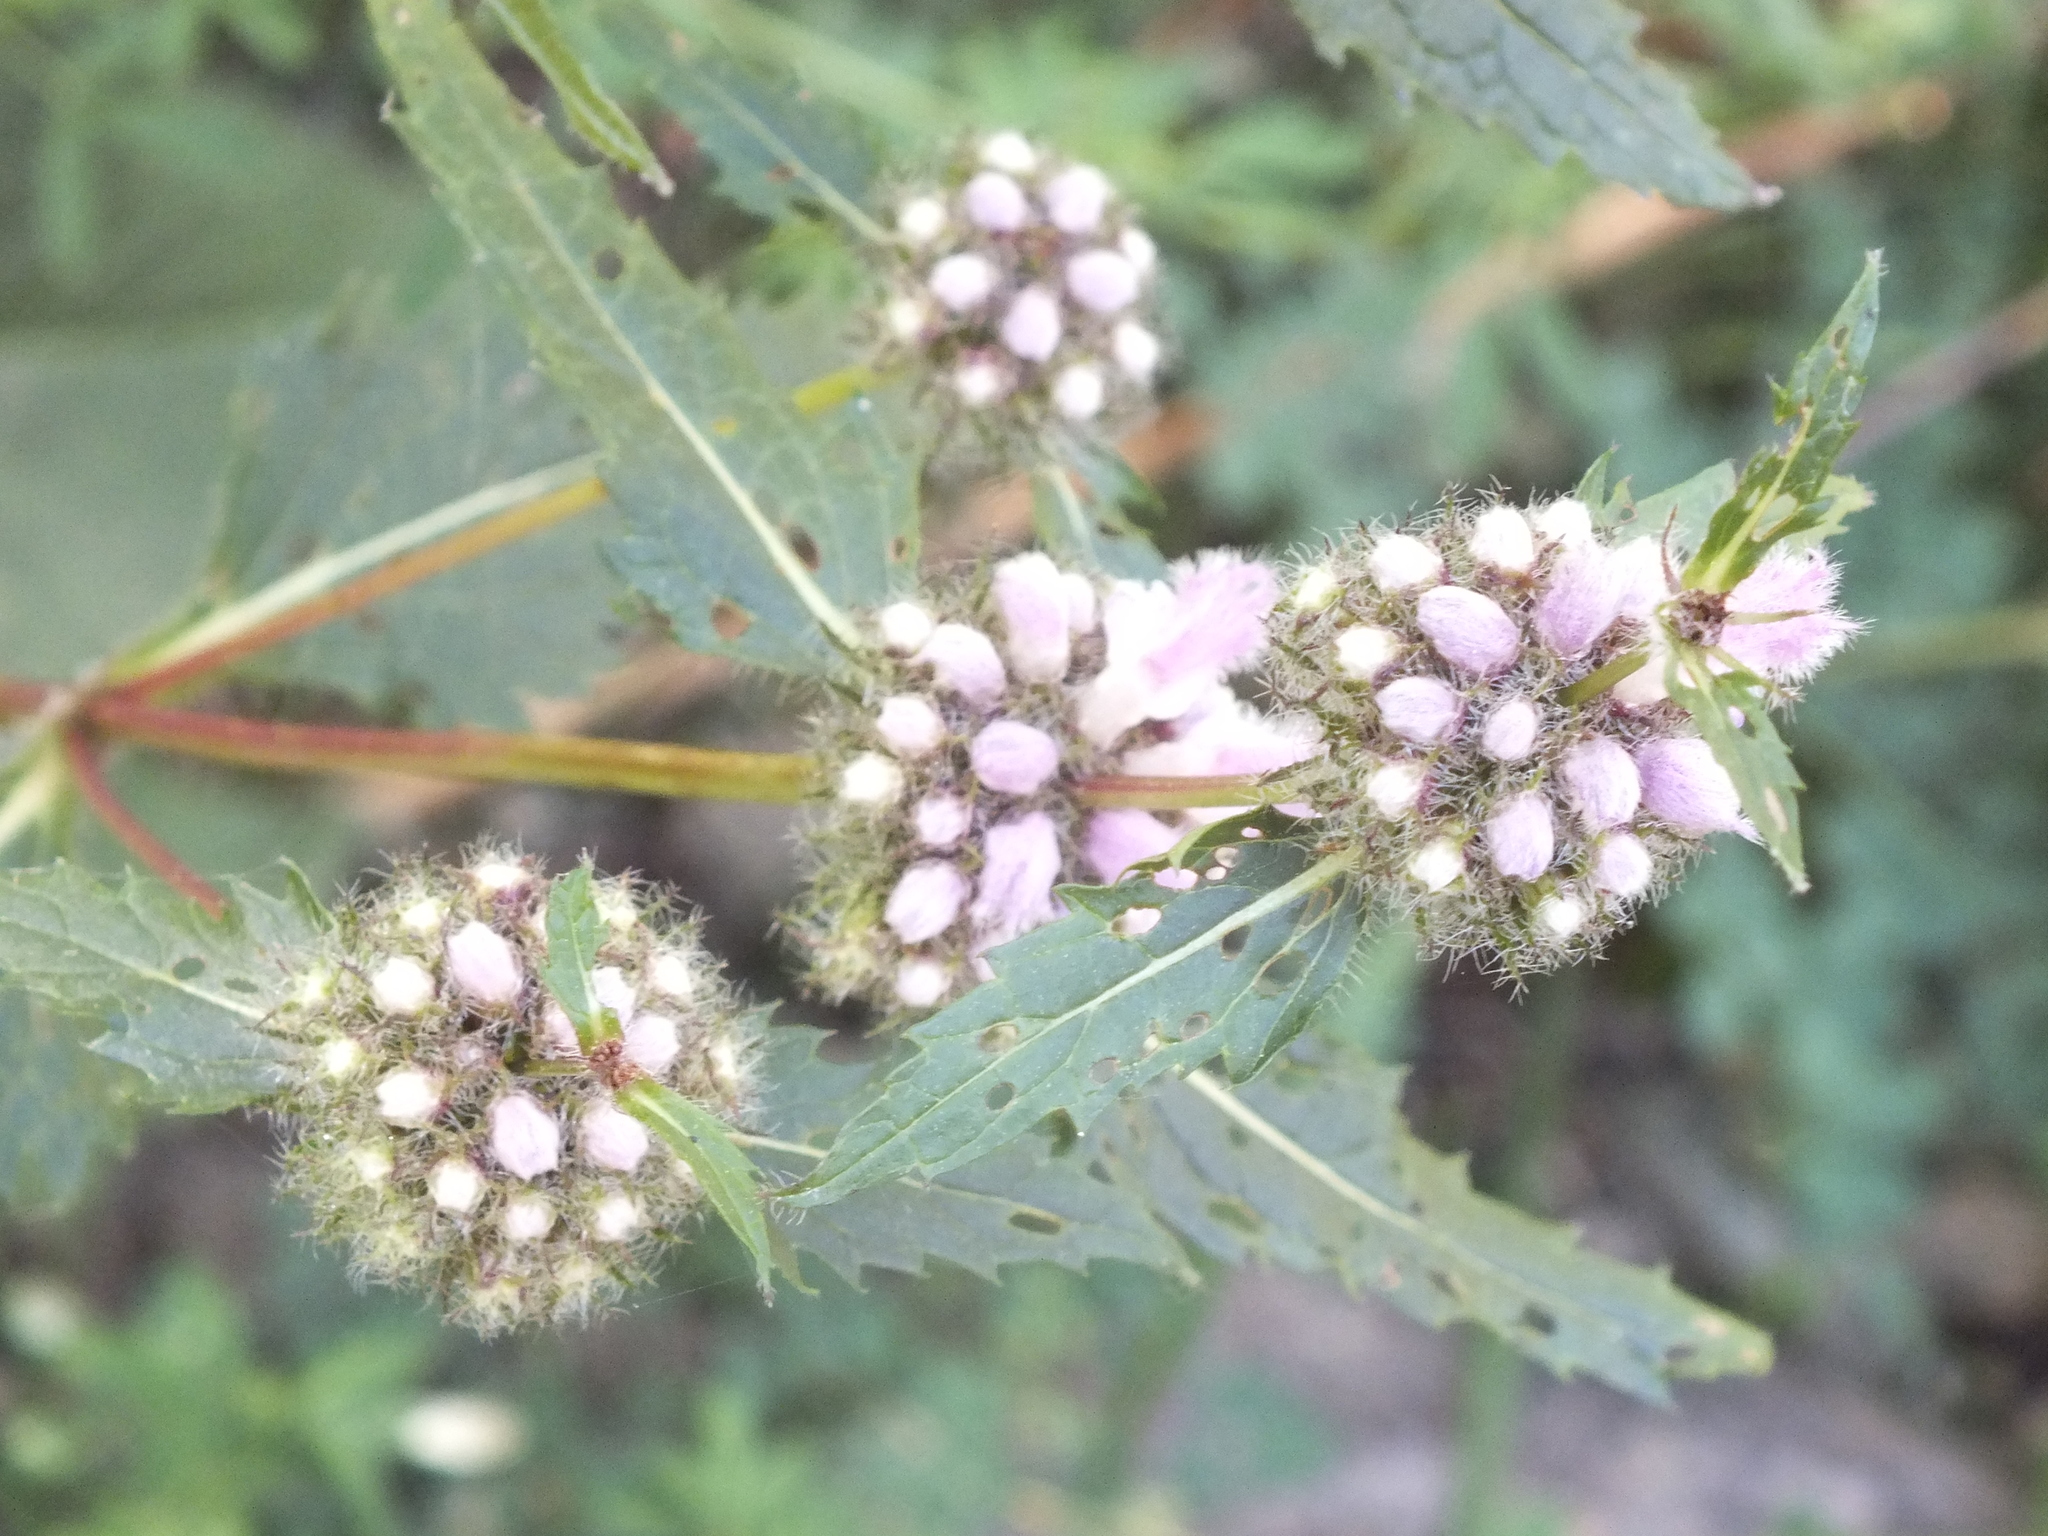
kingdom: Plantae
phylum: Tracheophyta
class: Magnoliopsida
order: Lamiales
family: Lamiaceae
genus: Phlomoides
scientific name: Phlomoides tuberosa
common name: Tuberous jerusalem sage
